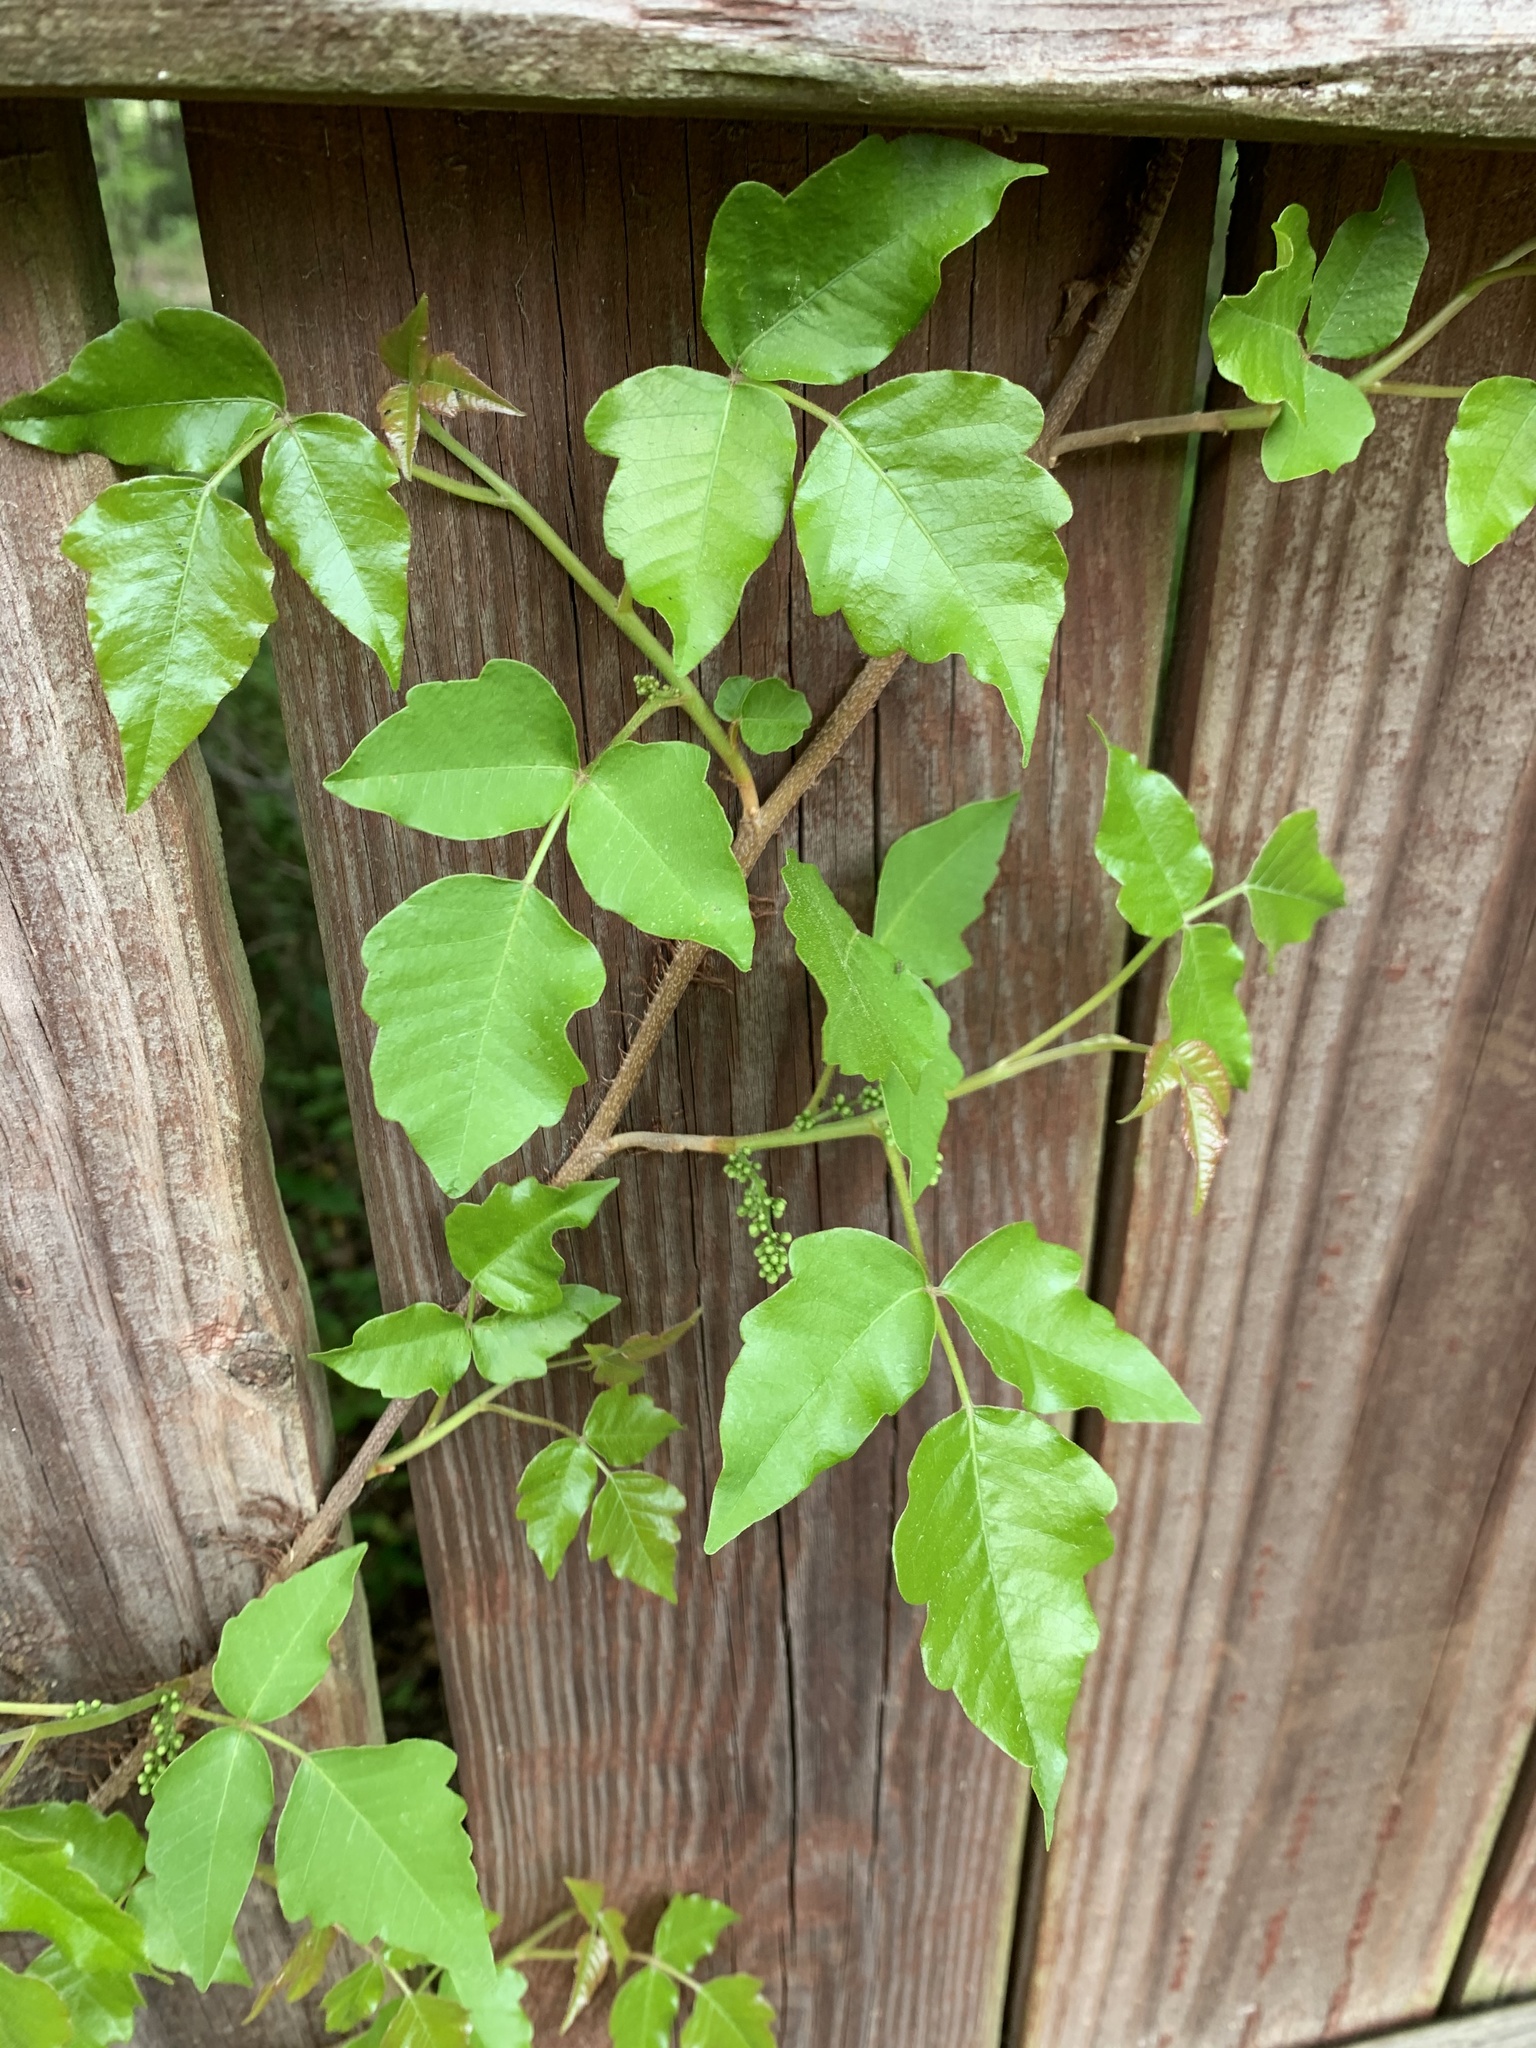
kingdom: Plantae
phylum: Tracheophyta
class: Magnoliopsida
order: Sapindales
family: Anacardiaceae
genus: Toxicodendron
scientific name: Toxicodendron radicans
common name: Poison ivy
